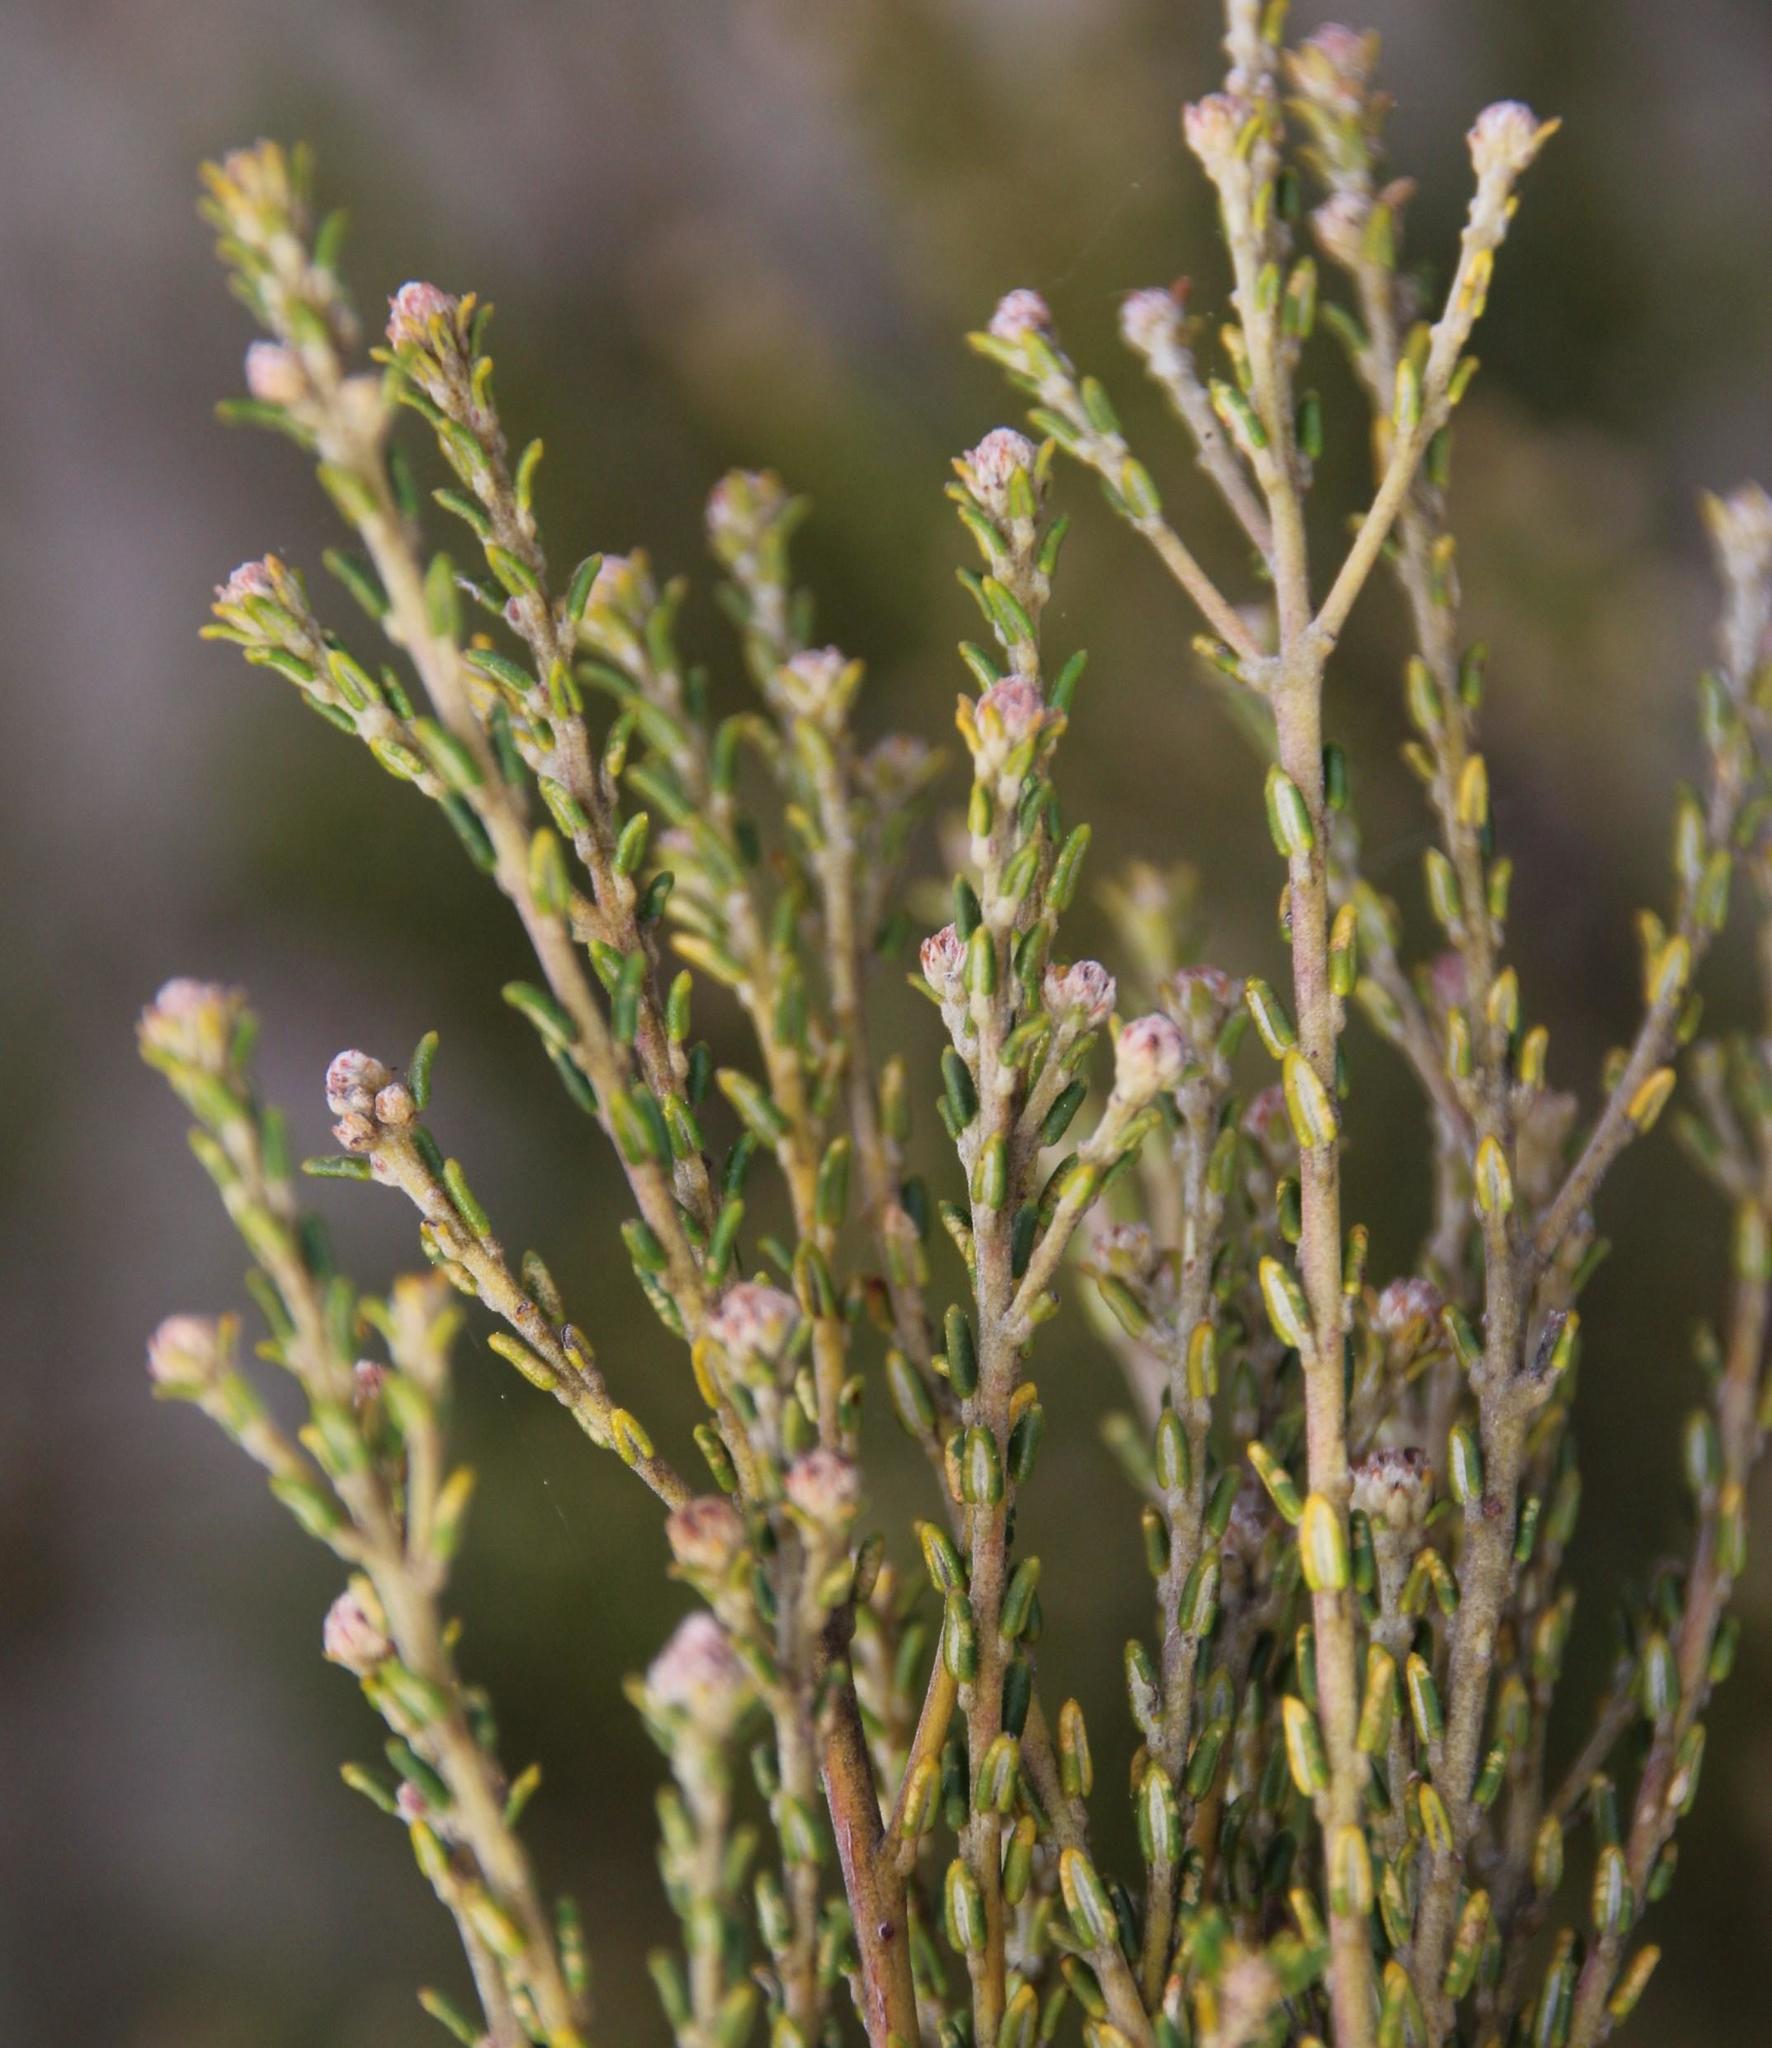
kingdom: Plantae
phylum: Tracheophyta
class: Magnoliopsida
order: Rosales
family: Rhamnaceae
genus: Phylica
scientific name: Phylica cephalantha
